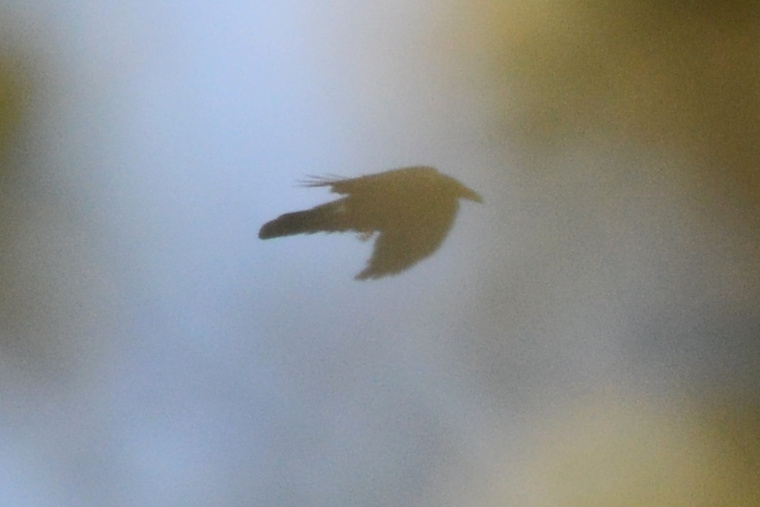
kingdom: Animalia
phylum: Chordata
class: Aves
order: Passeriformes
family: Corvidae
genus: Corvus
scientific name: Corvus corax
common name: Common raven
